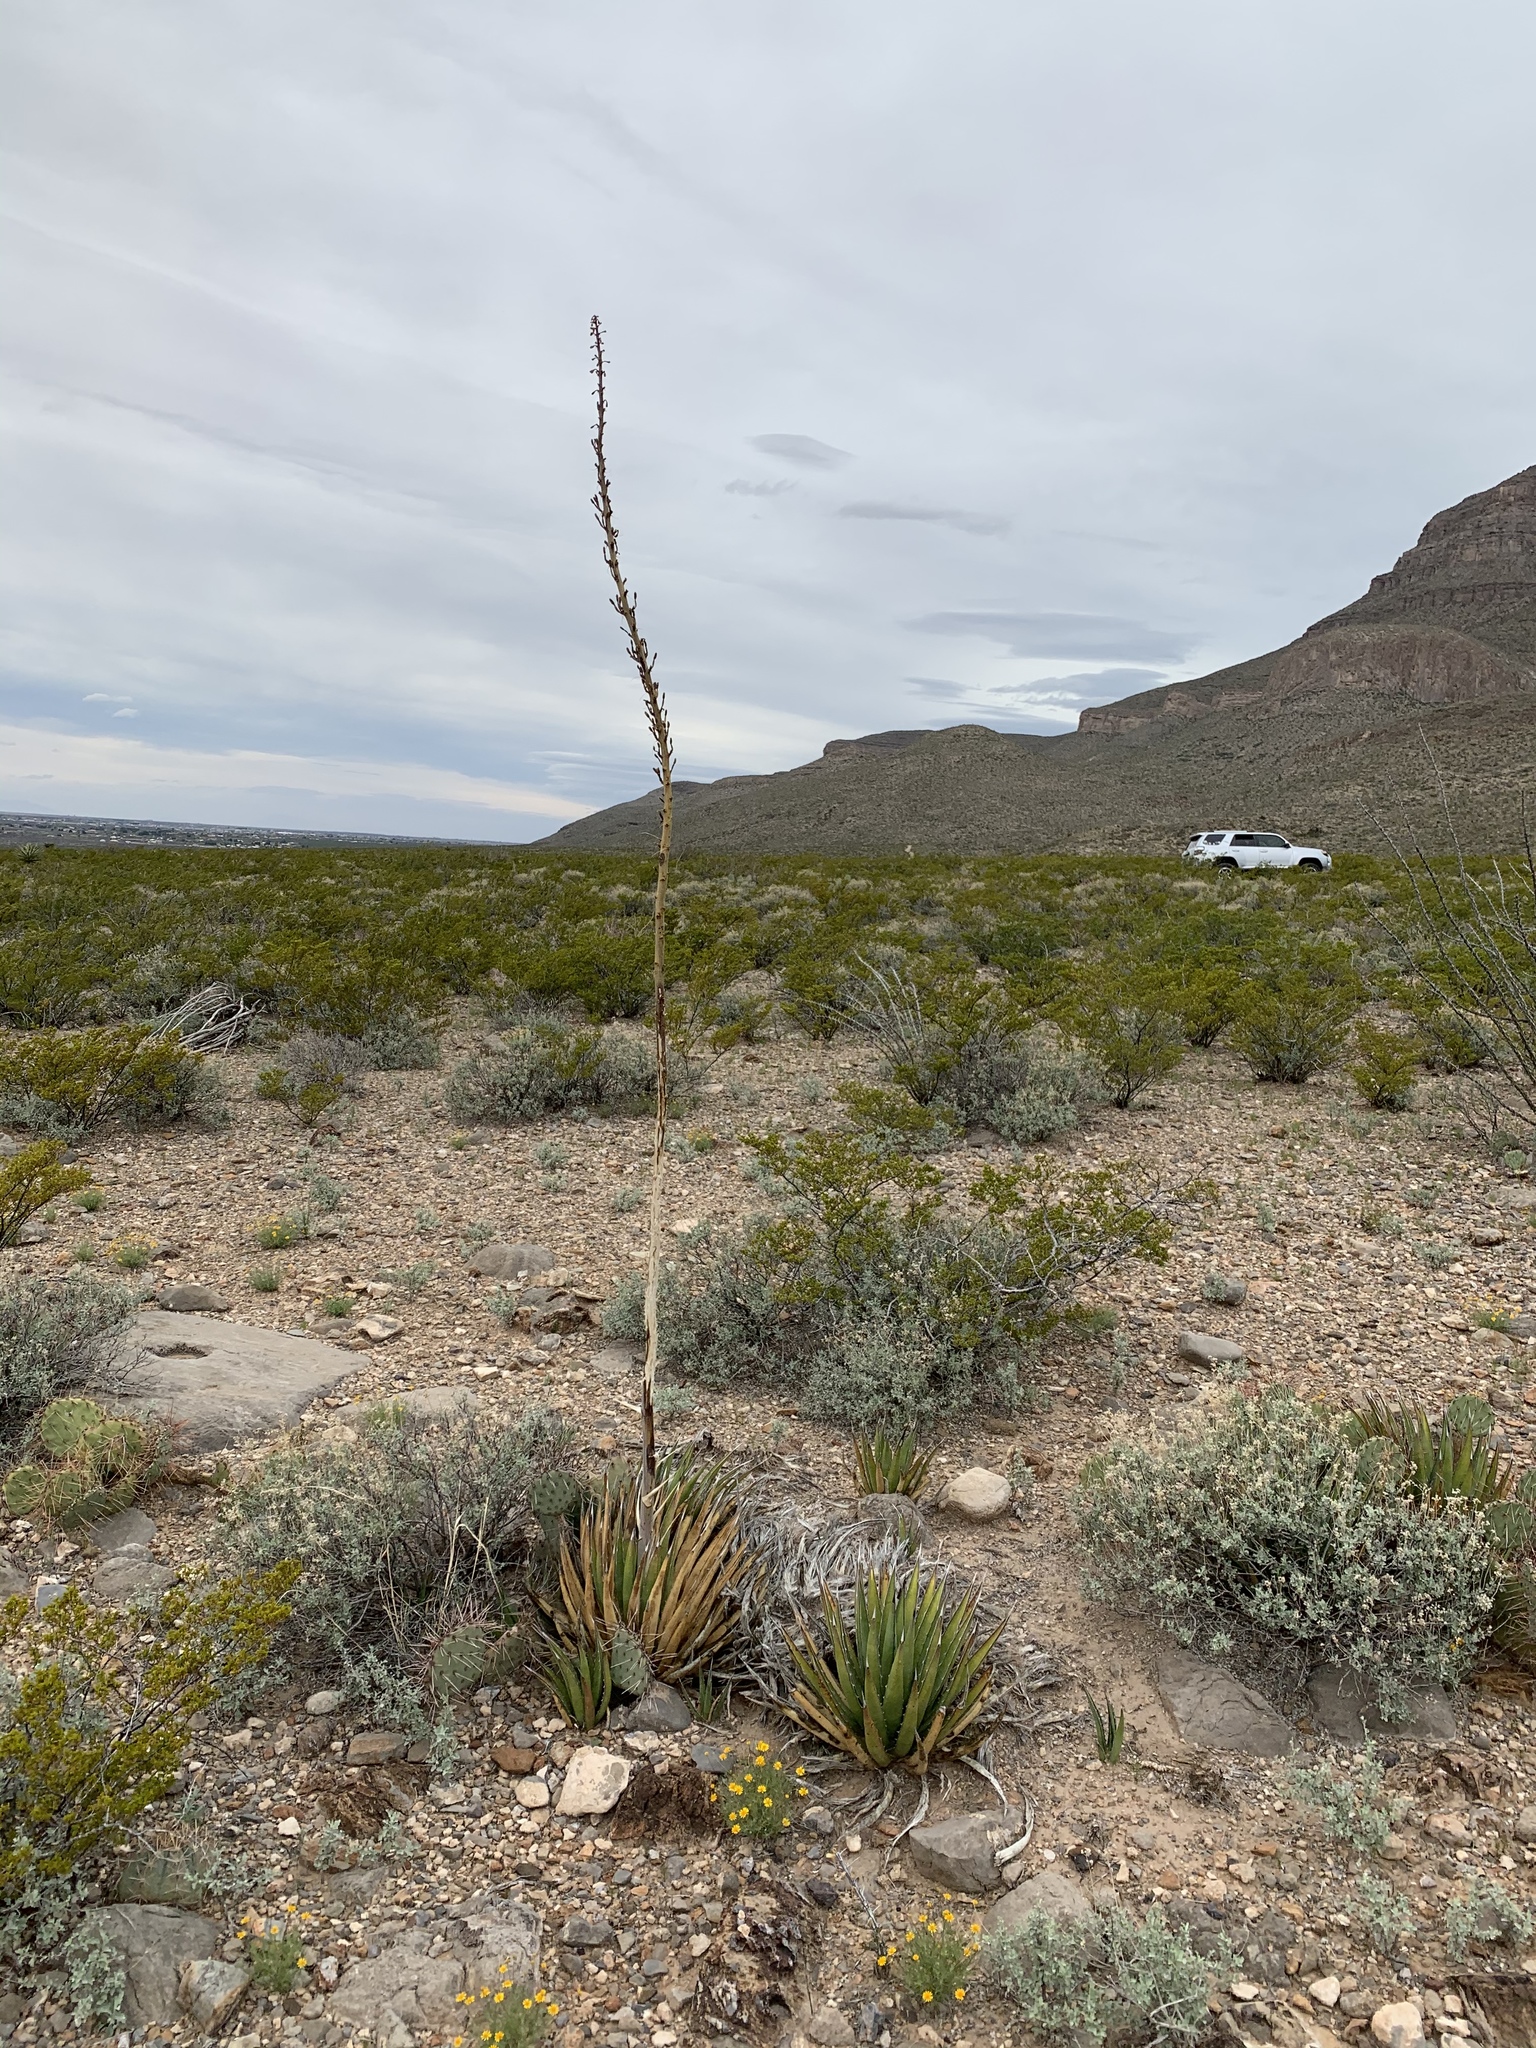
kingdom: Plantae
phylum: Tracheophyta
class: Liliopsida
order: Asparagales
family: Asparagaceae
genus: Agave
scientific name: Agave lechuguilla
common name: Lecheguilla agave
